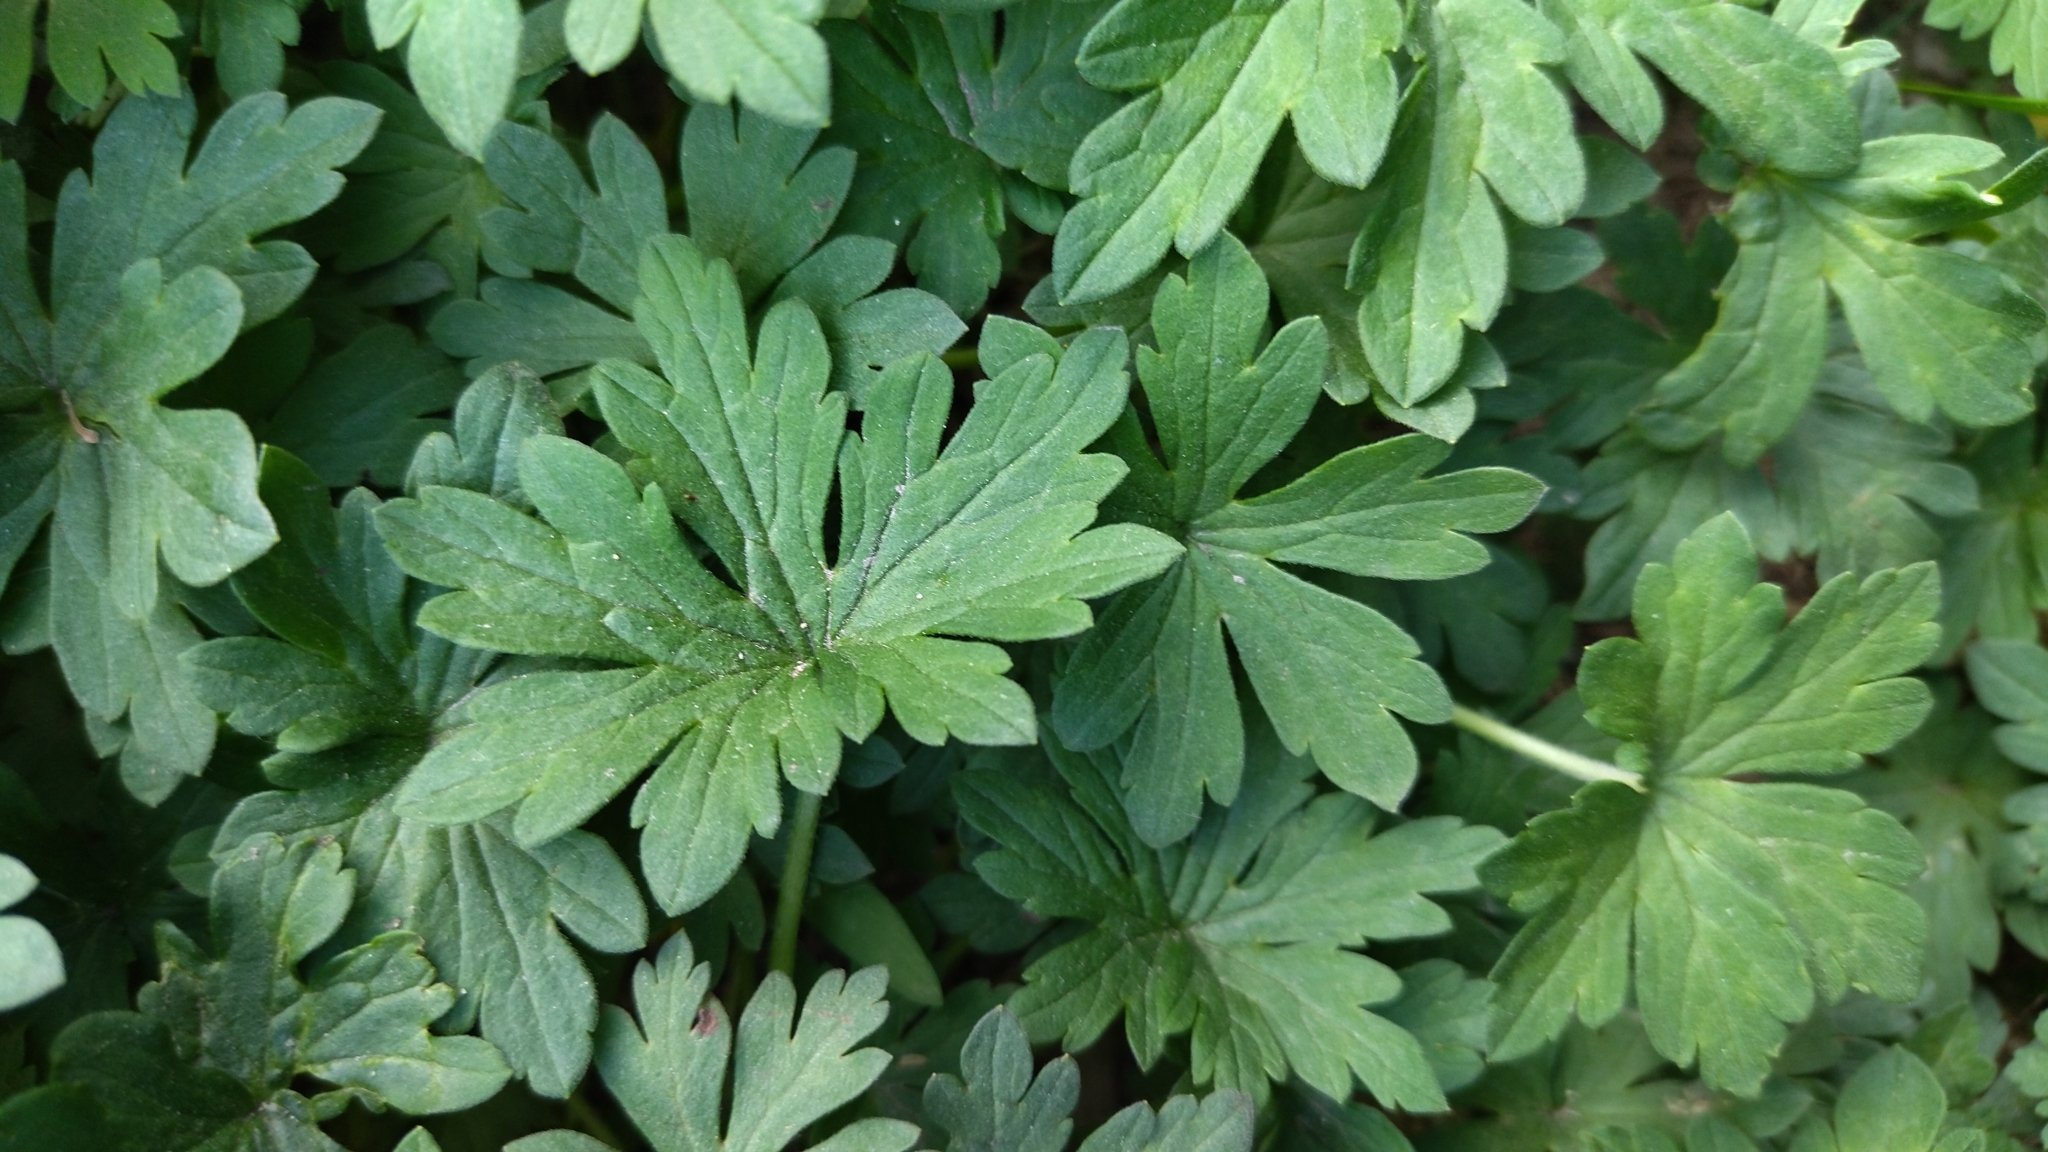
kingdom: Plantae
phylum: Tracheophyta
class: Magnoliopsida
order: Geraniales
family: Geraniaceae
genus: Geranium
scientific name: Geranium sibiricum
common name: Siberian crane's-bill
